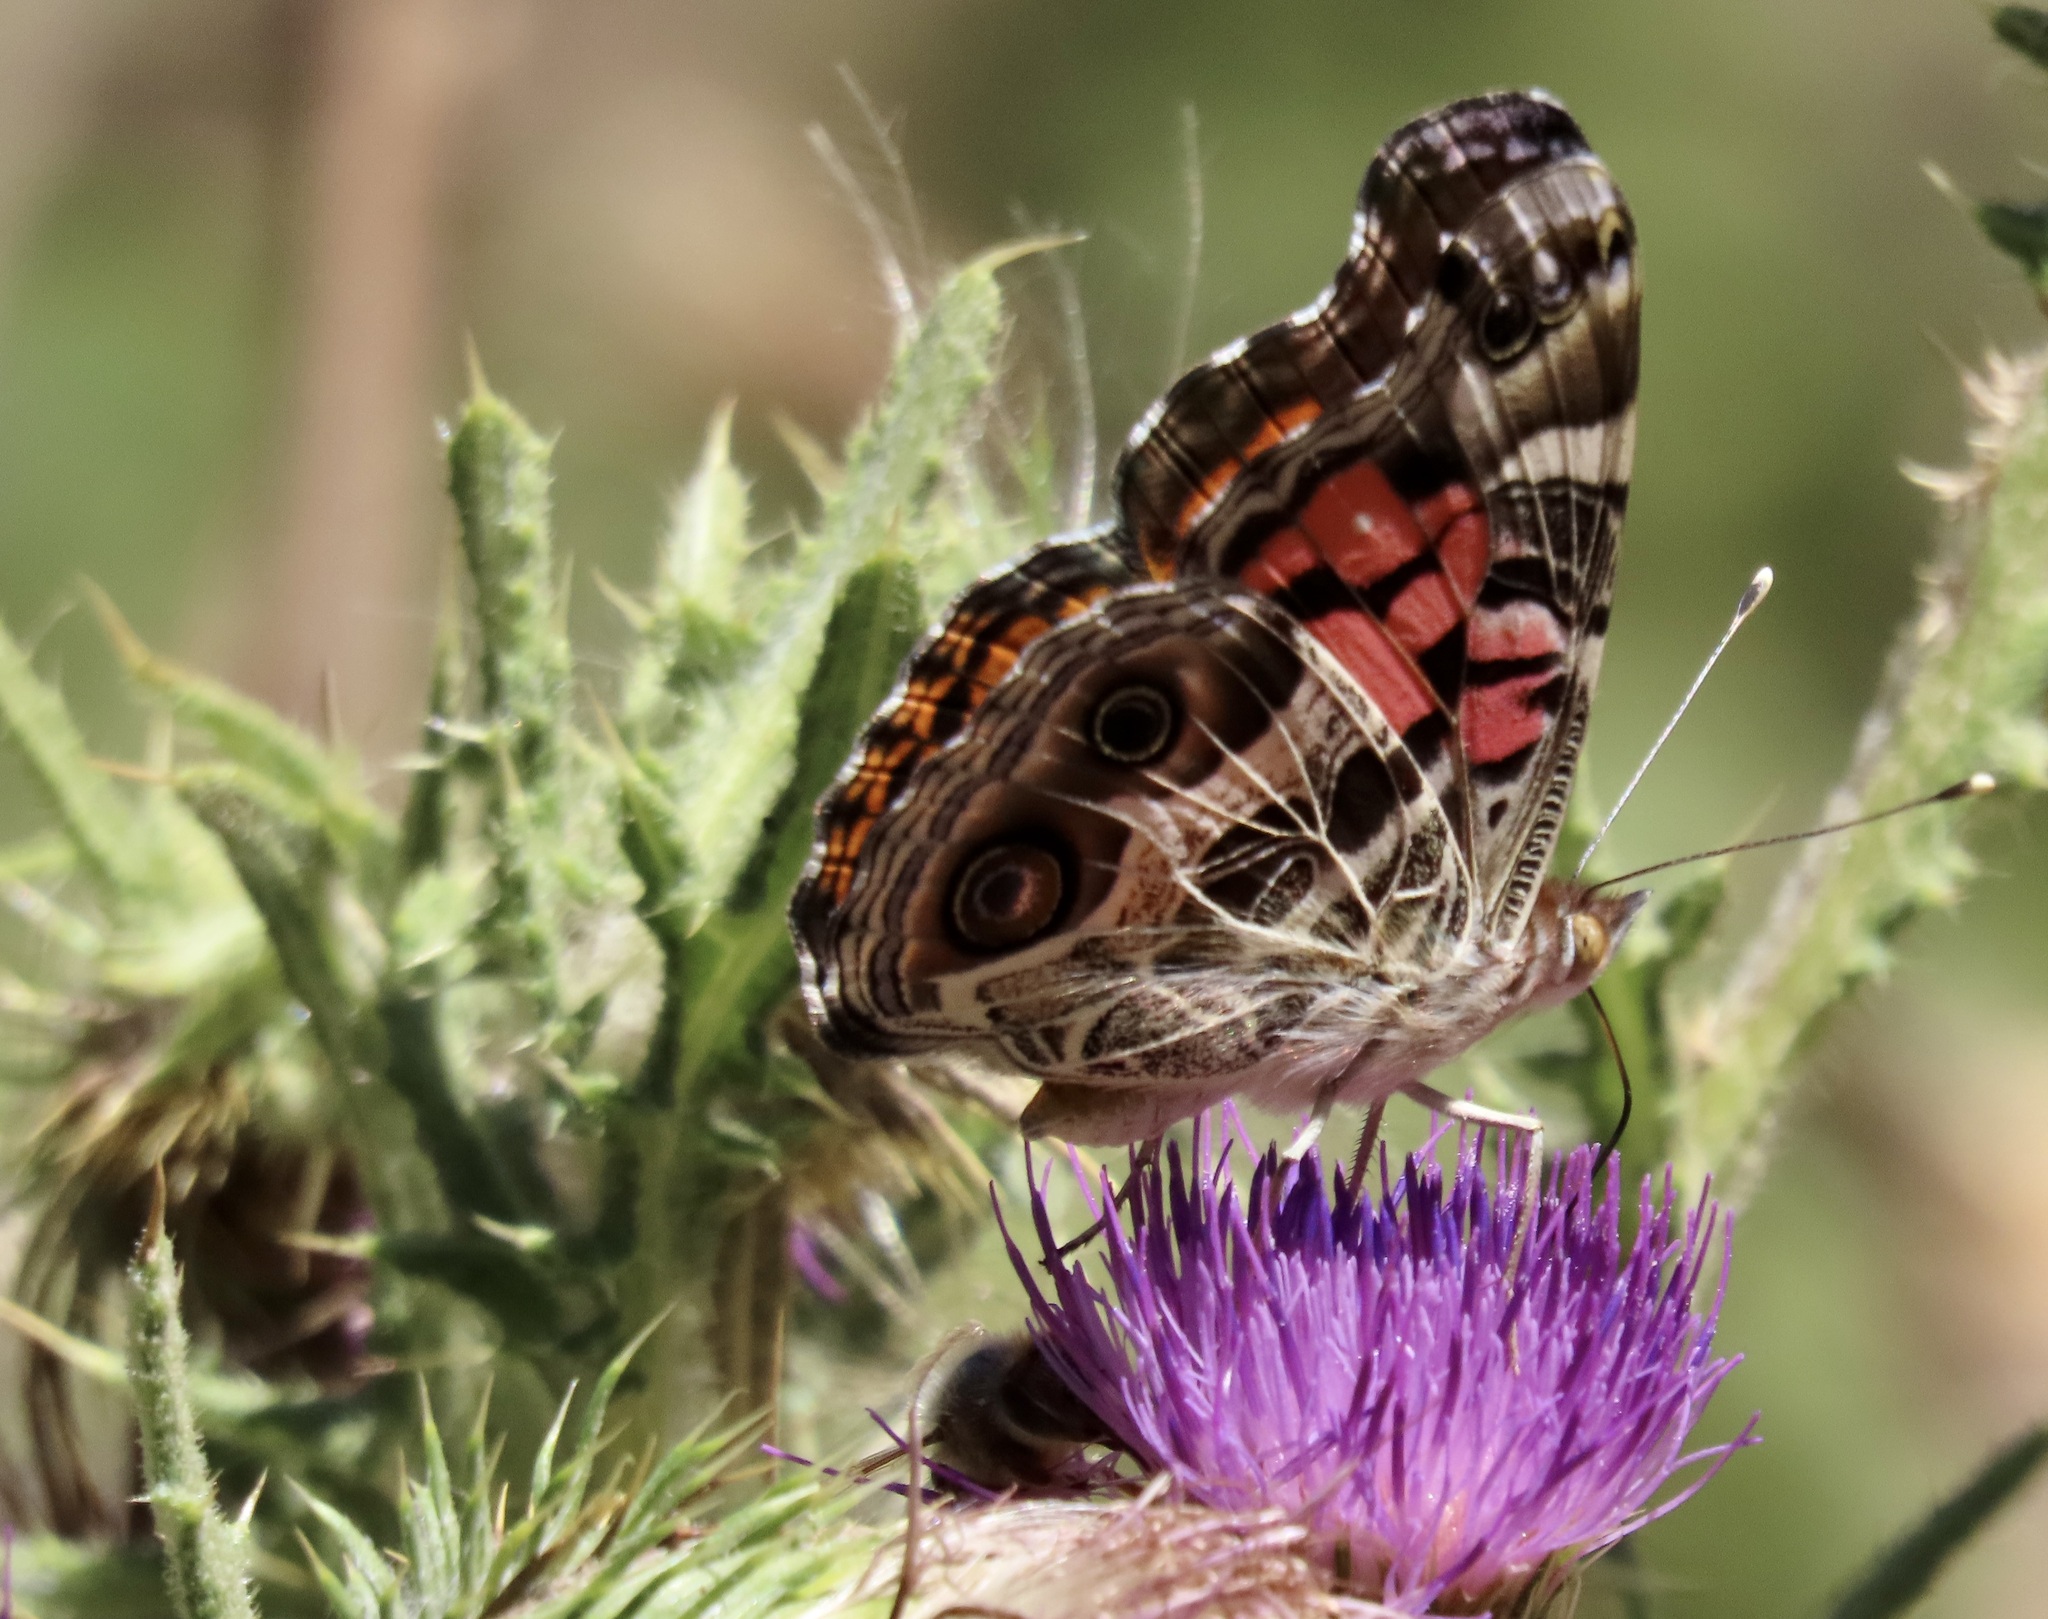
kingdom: Animalia
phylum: Arthropoda
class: Insecta
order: Lepidoptera
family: Nymphalidae
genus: Vanessa
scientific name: Vanessa virginiensis
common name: American lady
